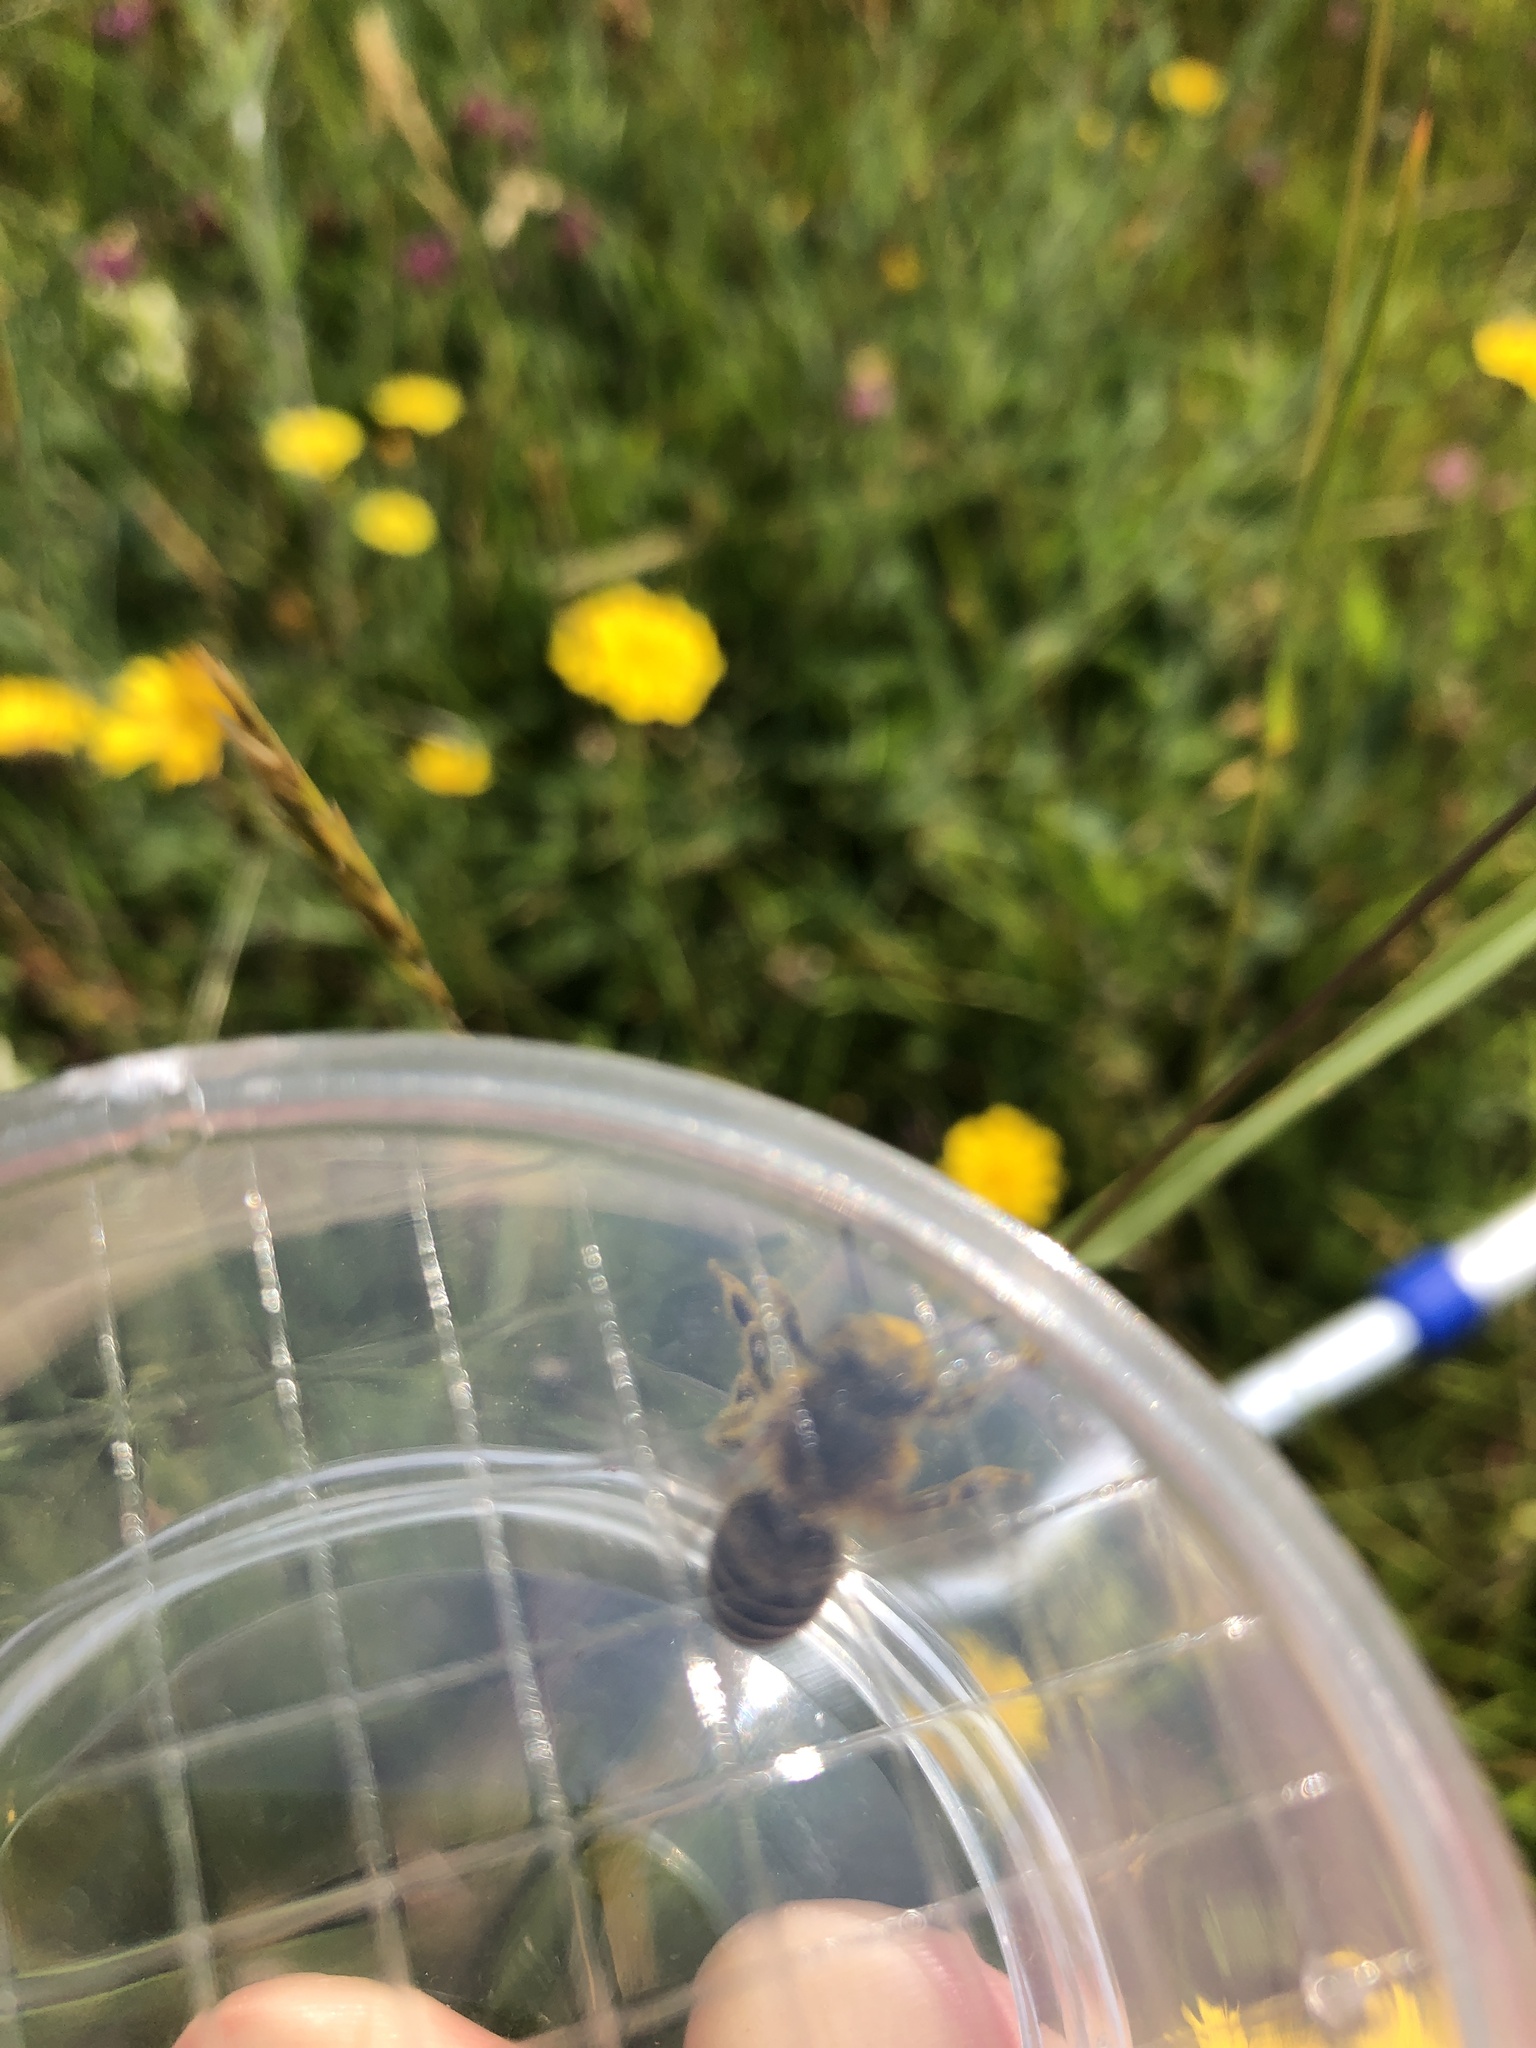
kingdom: Animalia
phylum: Arthropoda
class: Insecta
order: Hymenoptera
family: Apidae
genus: Apis
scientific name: Apis mellifera
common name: Honey bee
